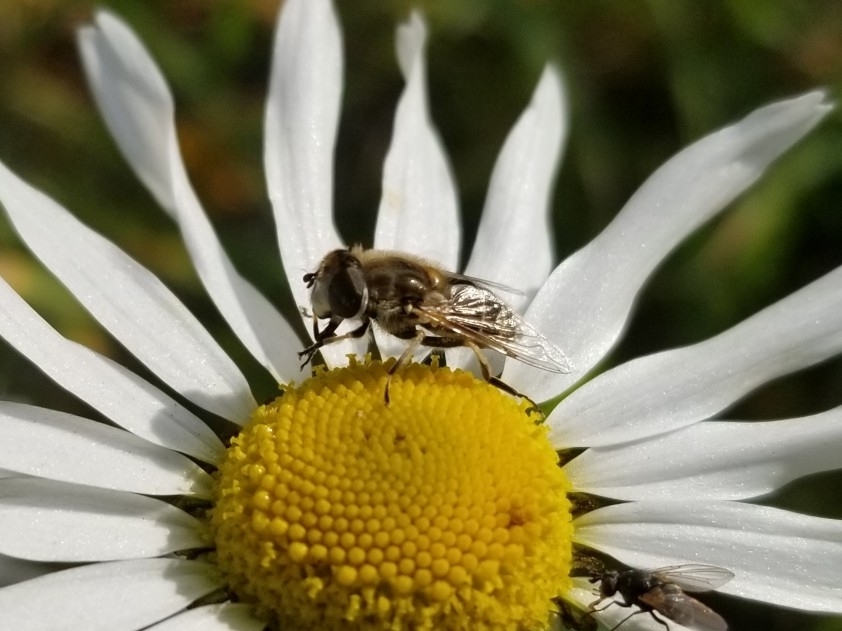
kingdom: Animalia
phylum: Arthropoda
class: Insecta
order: Diptera
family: Syrphidae
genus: Eristalis
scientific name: Eristalis arbustorum
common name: Hover fly
